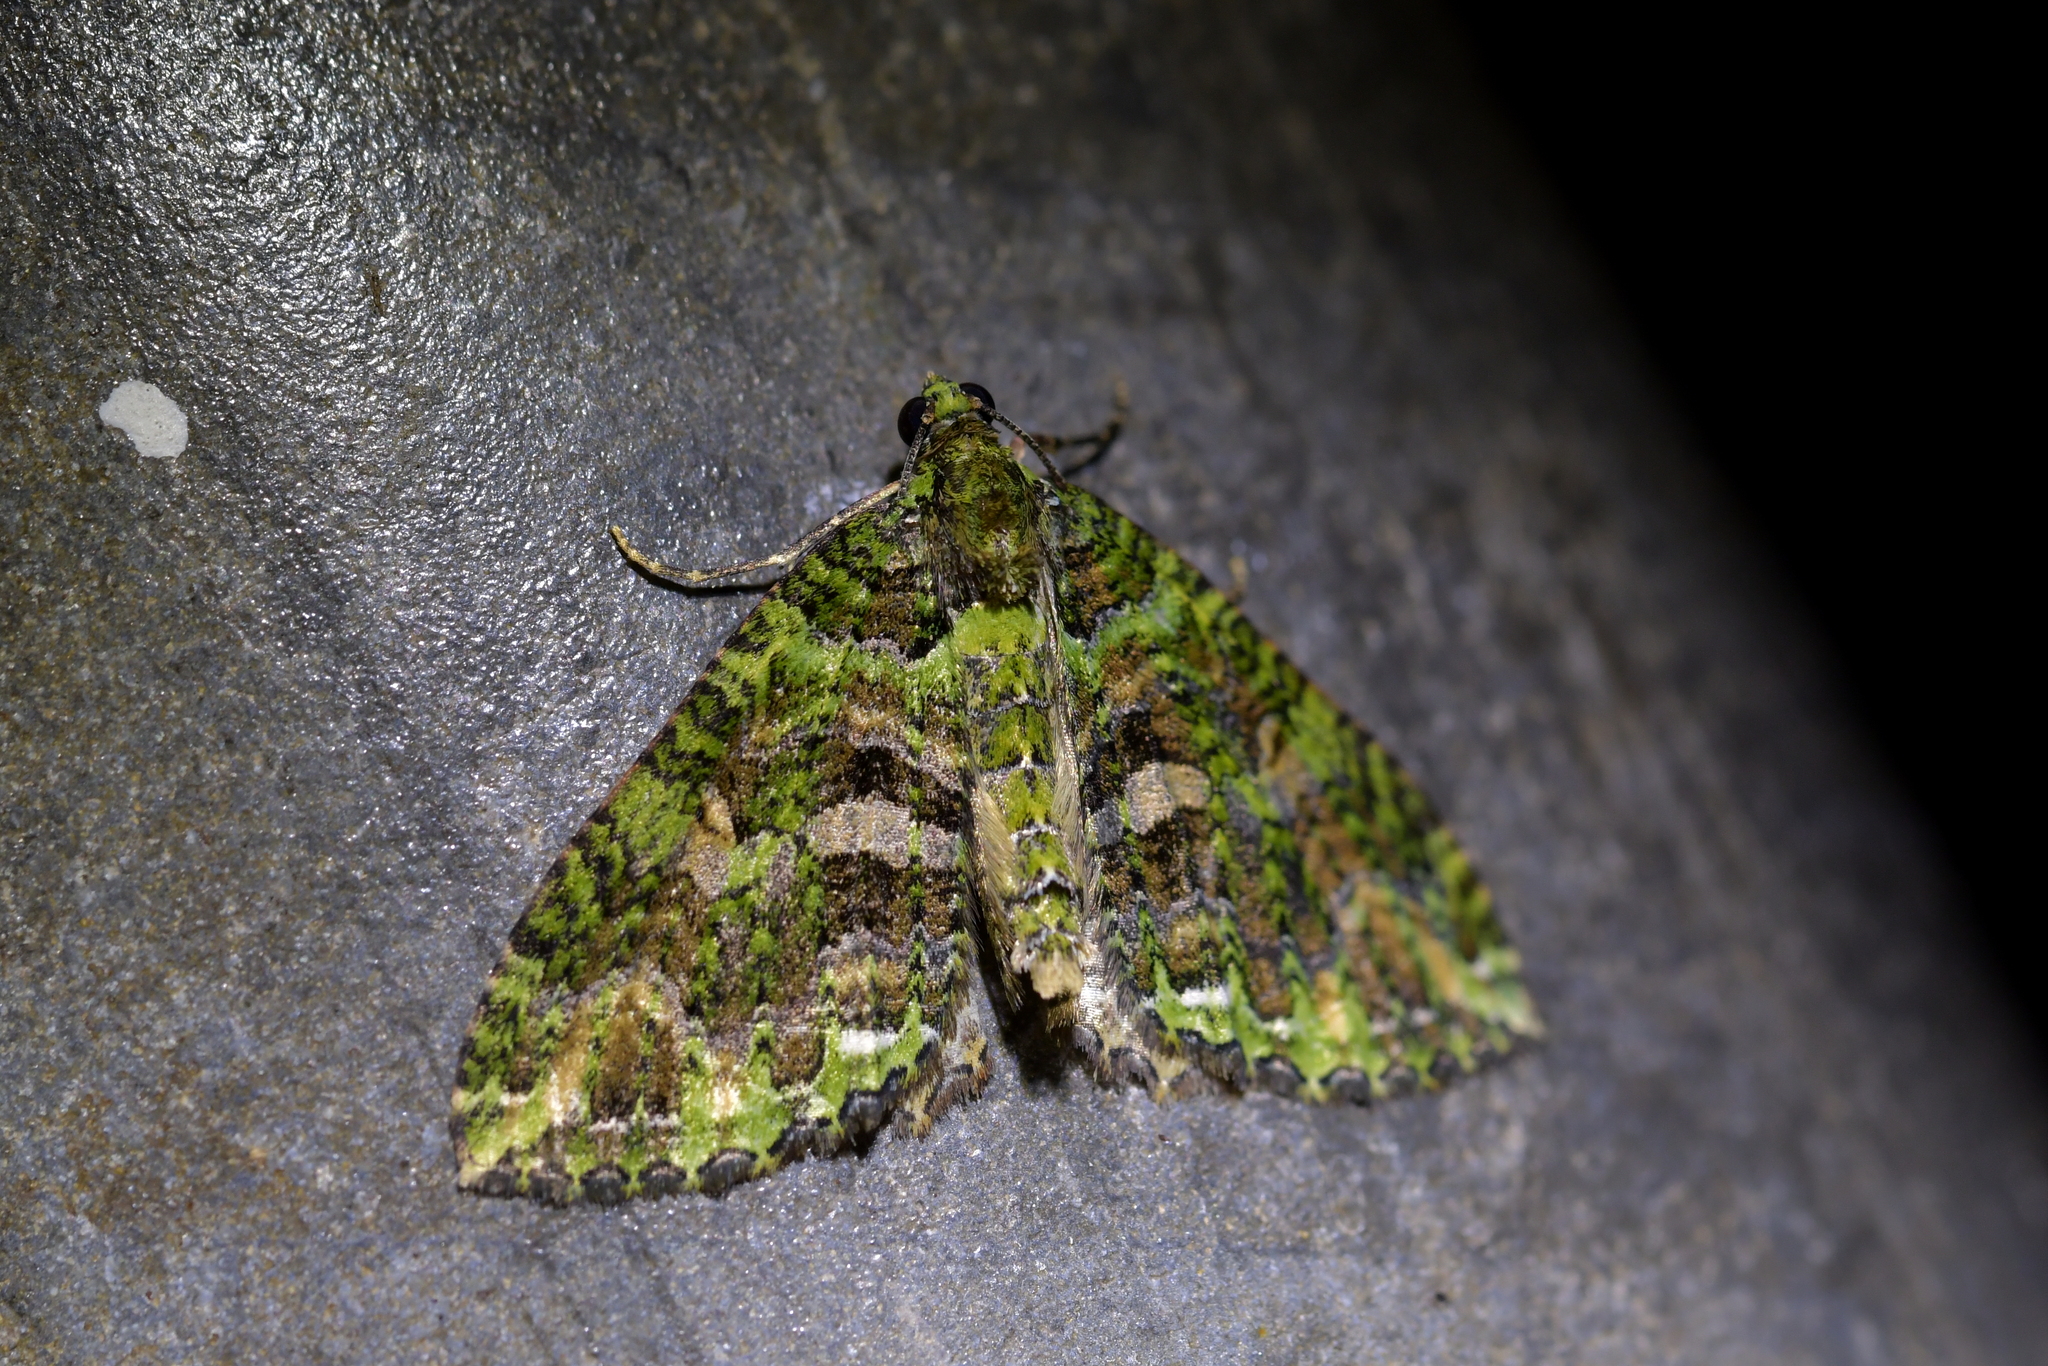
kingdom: Animalia
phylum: Arthropoda
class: Insecta
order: Lepidoptera
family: Geometridae
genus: Austrocidaria
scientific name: Austrocidaria similata
